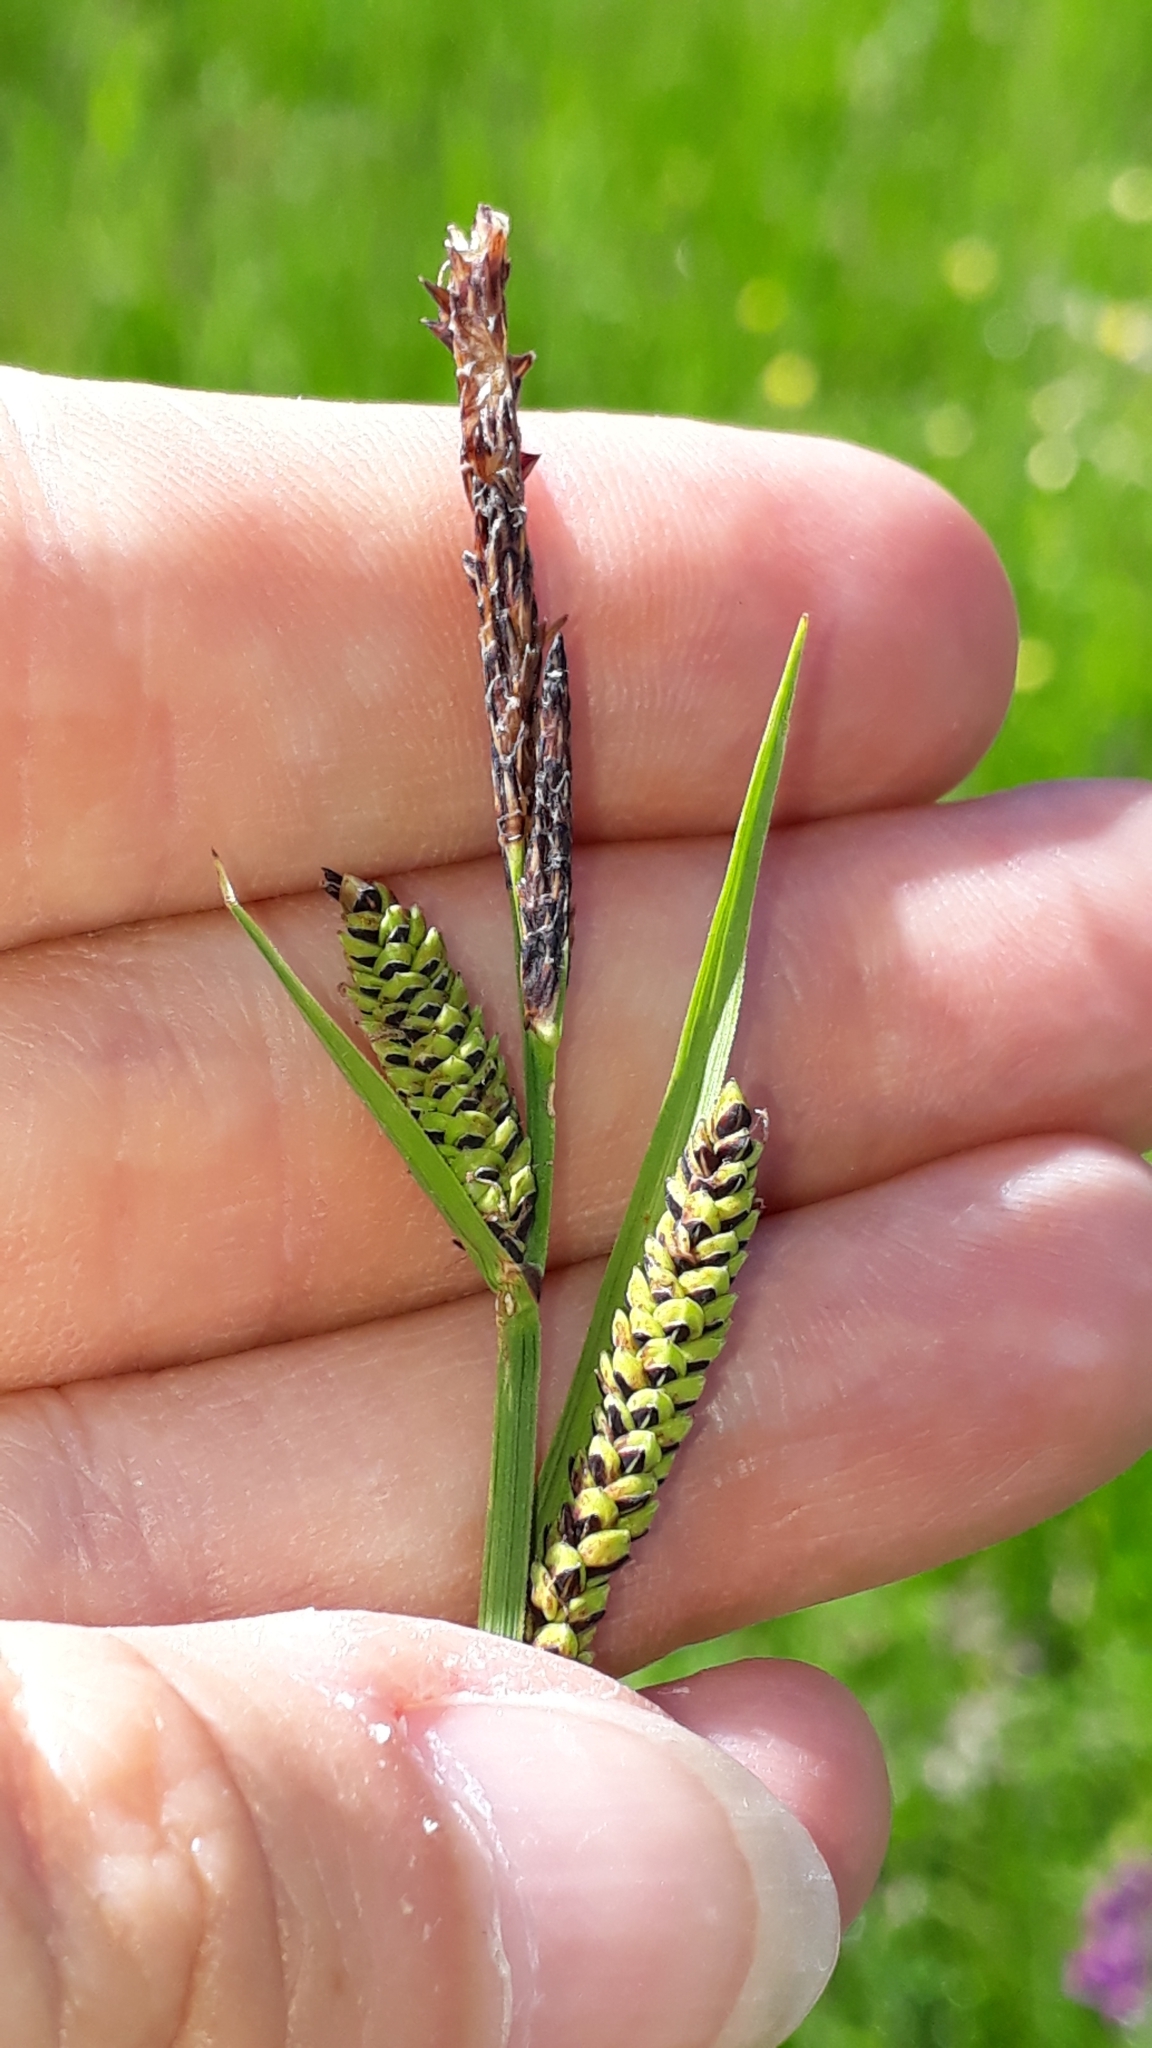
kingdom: Plantae
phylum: Tracheophyta
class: Liliopsida
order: Poales
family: Cyperaceae
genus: Carex
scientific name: Carex nigra
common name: Common sedge
